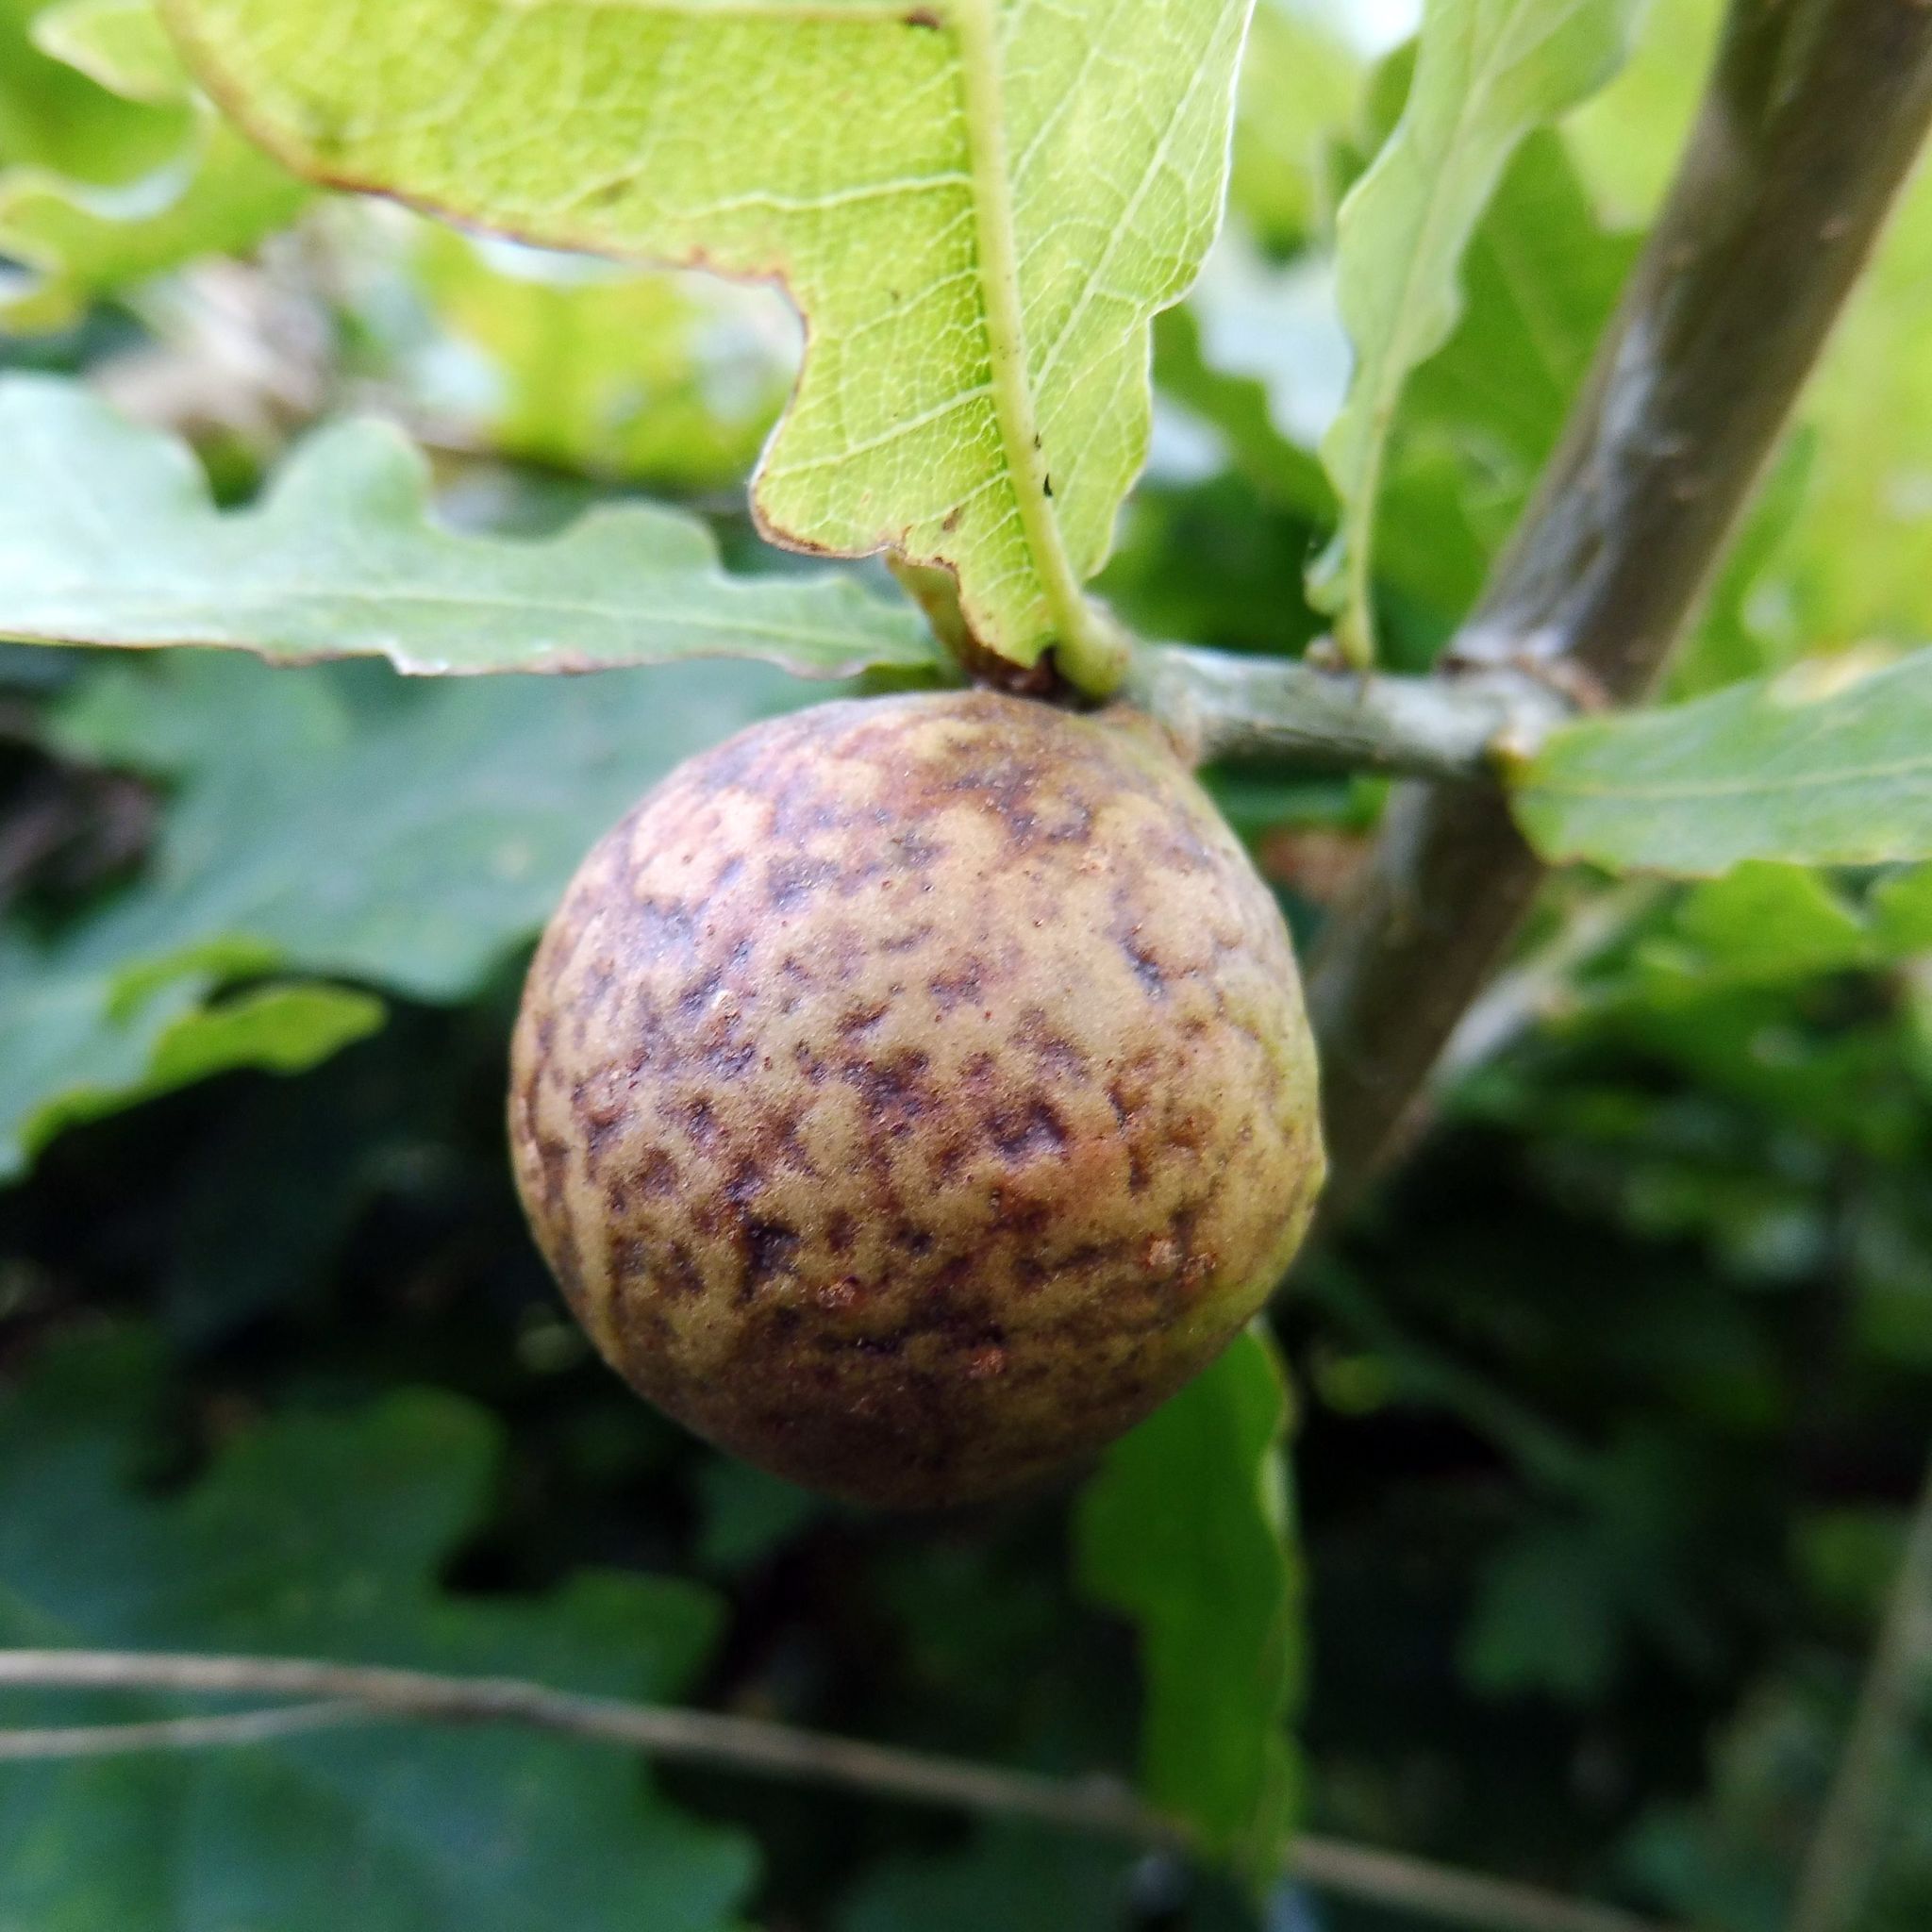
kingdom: Animalia
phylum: Arthropoda
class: Insecta
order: Hymenoptera
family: Cynipidae
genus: Andricus
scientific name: Andricus kollari
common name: Marble gall
